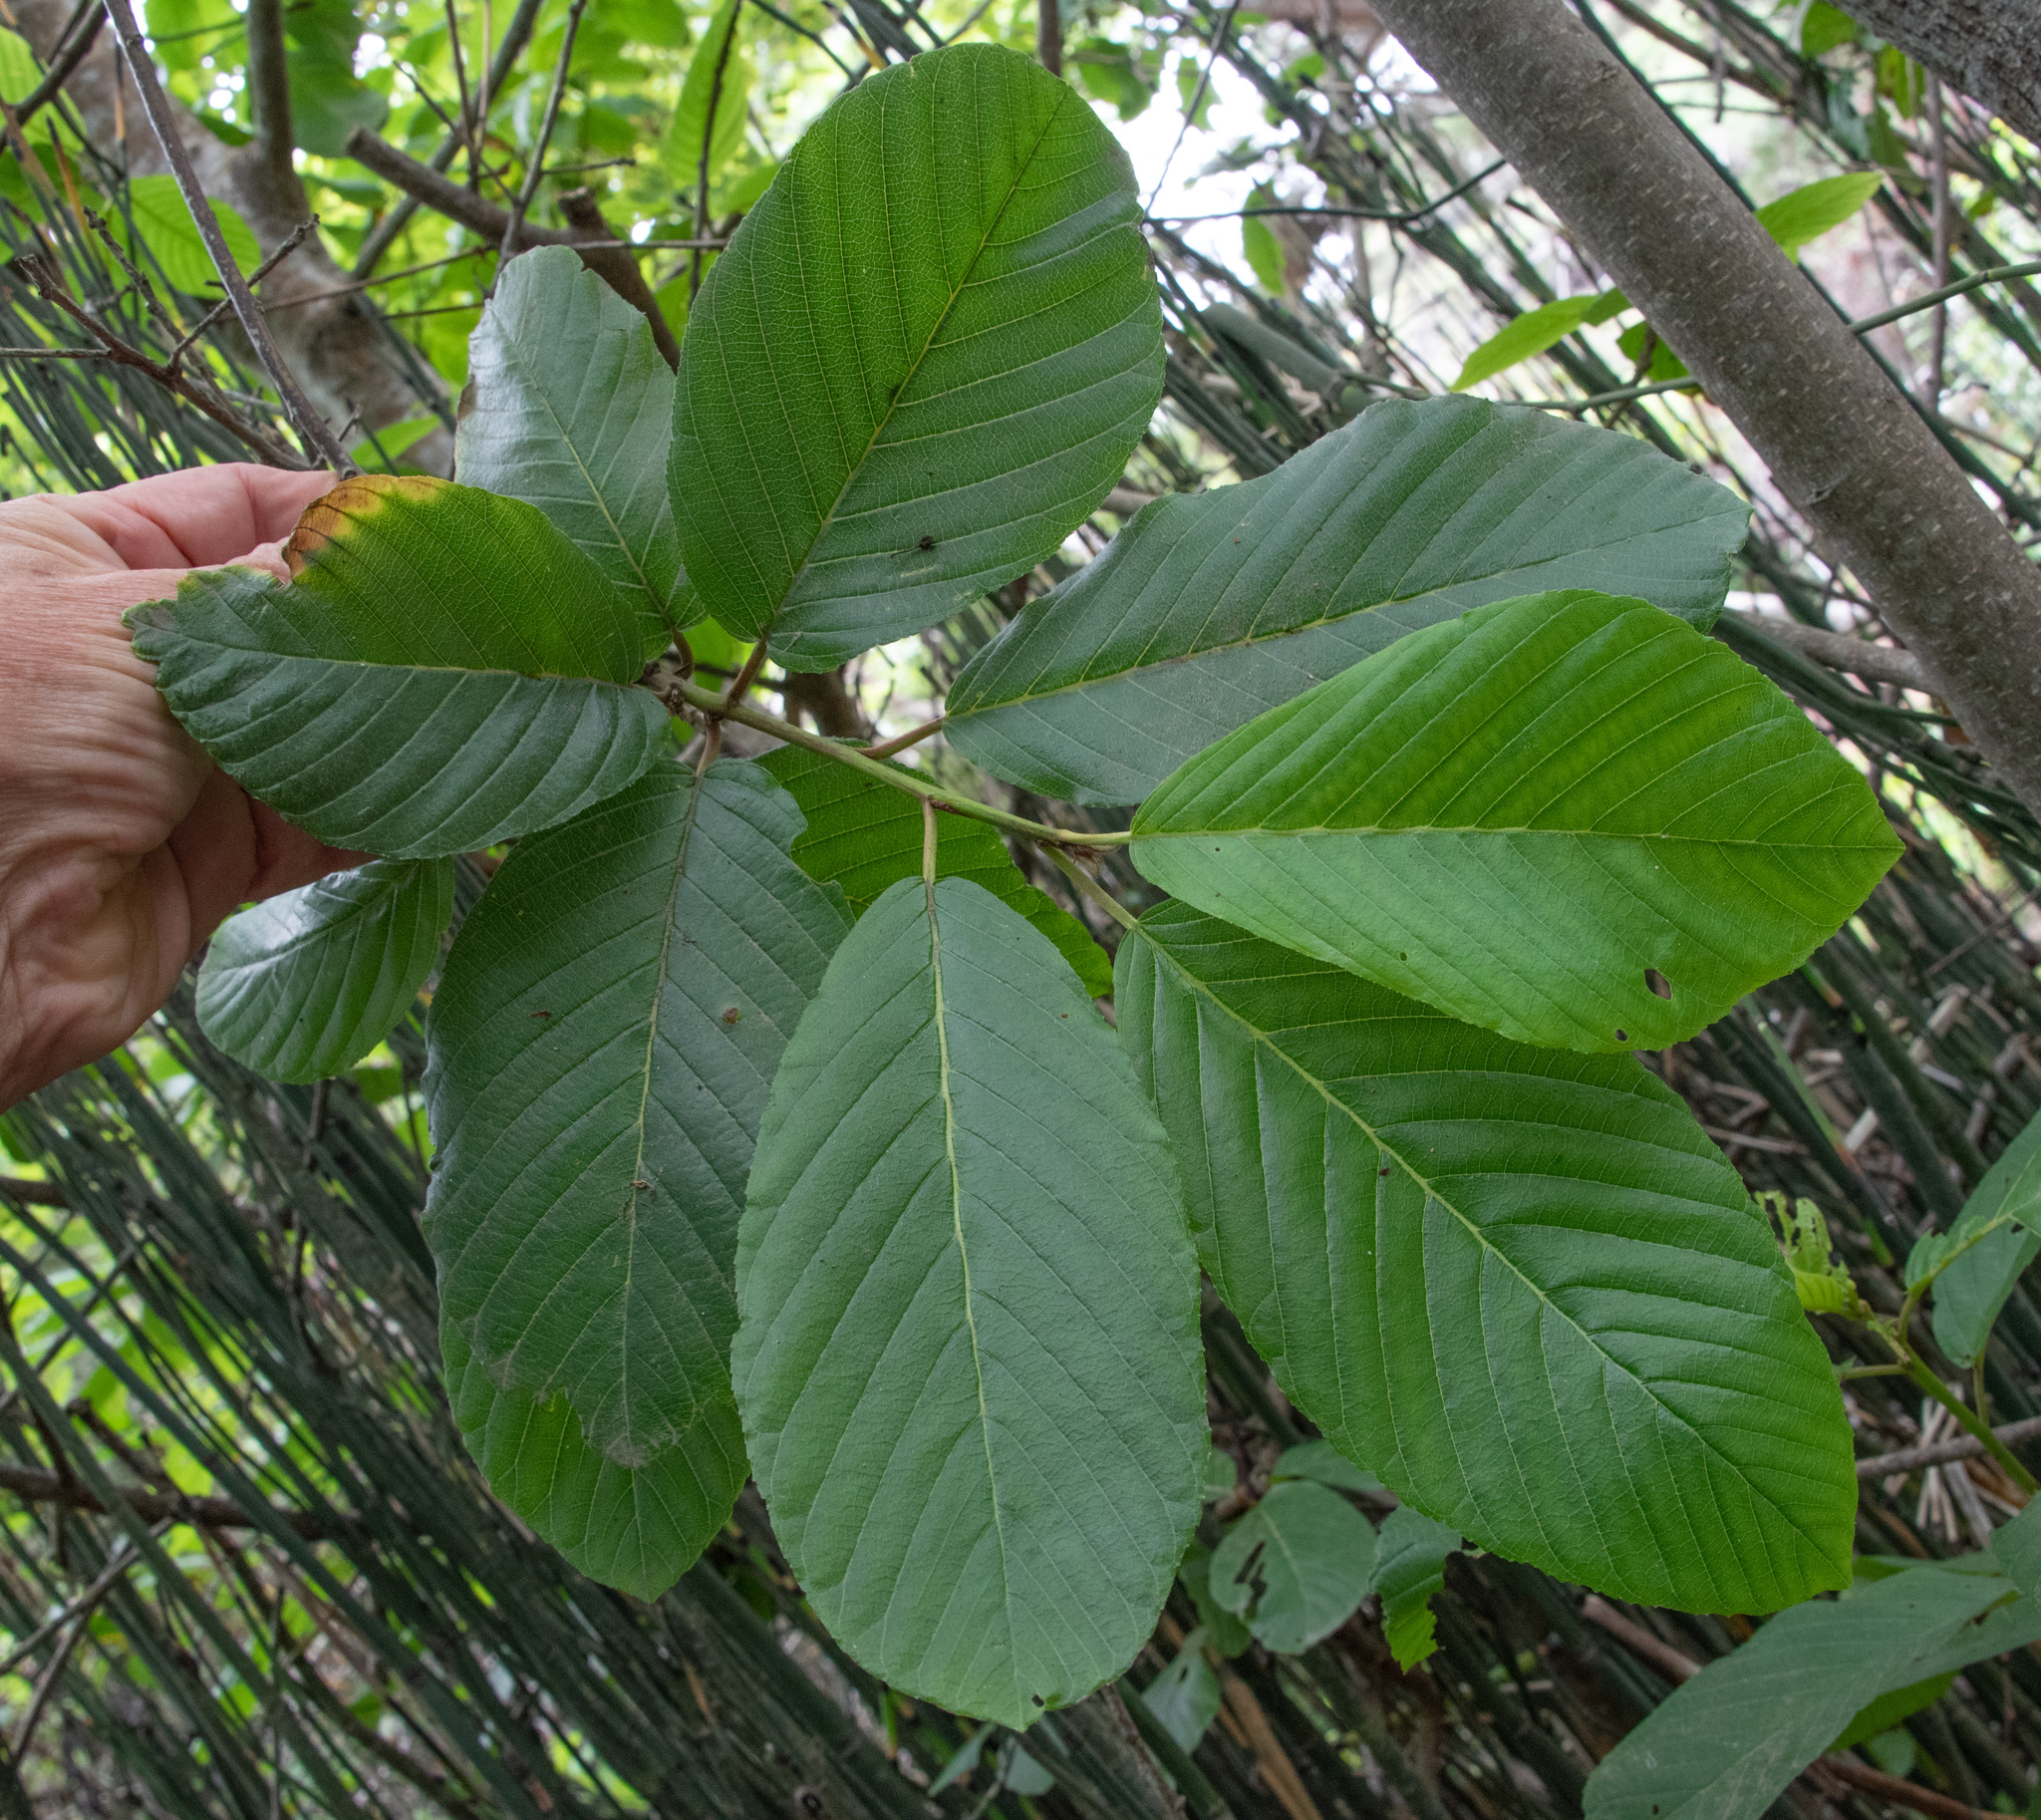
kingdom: Plantae
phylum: Tracheophyta
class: Magnoliopsida
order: Rosales
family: Rhamnaceae
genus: Frangula
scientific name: Frangula purshiana
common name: Cascara buckthorn
